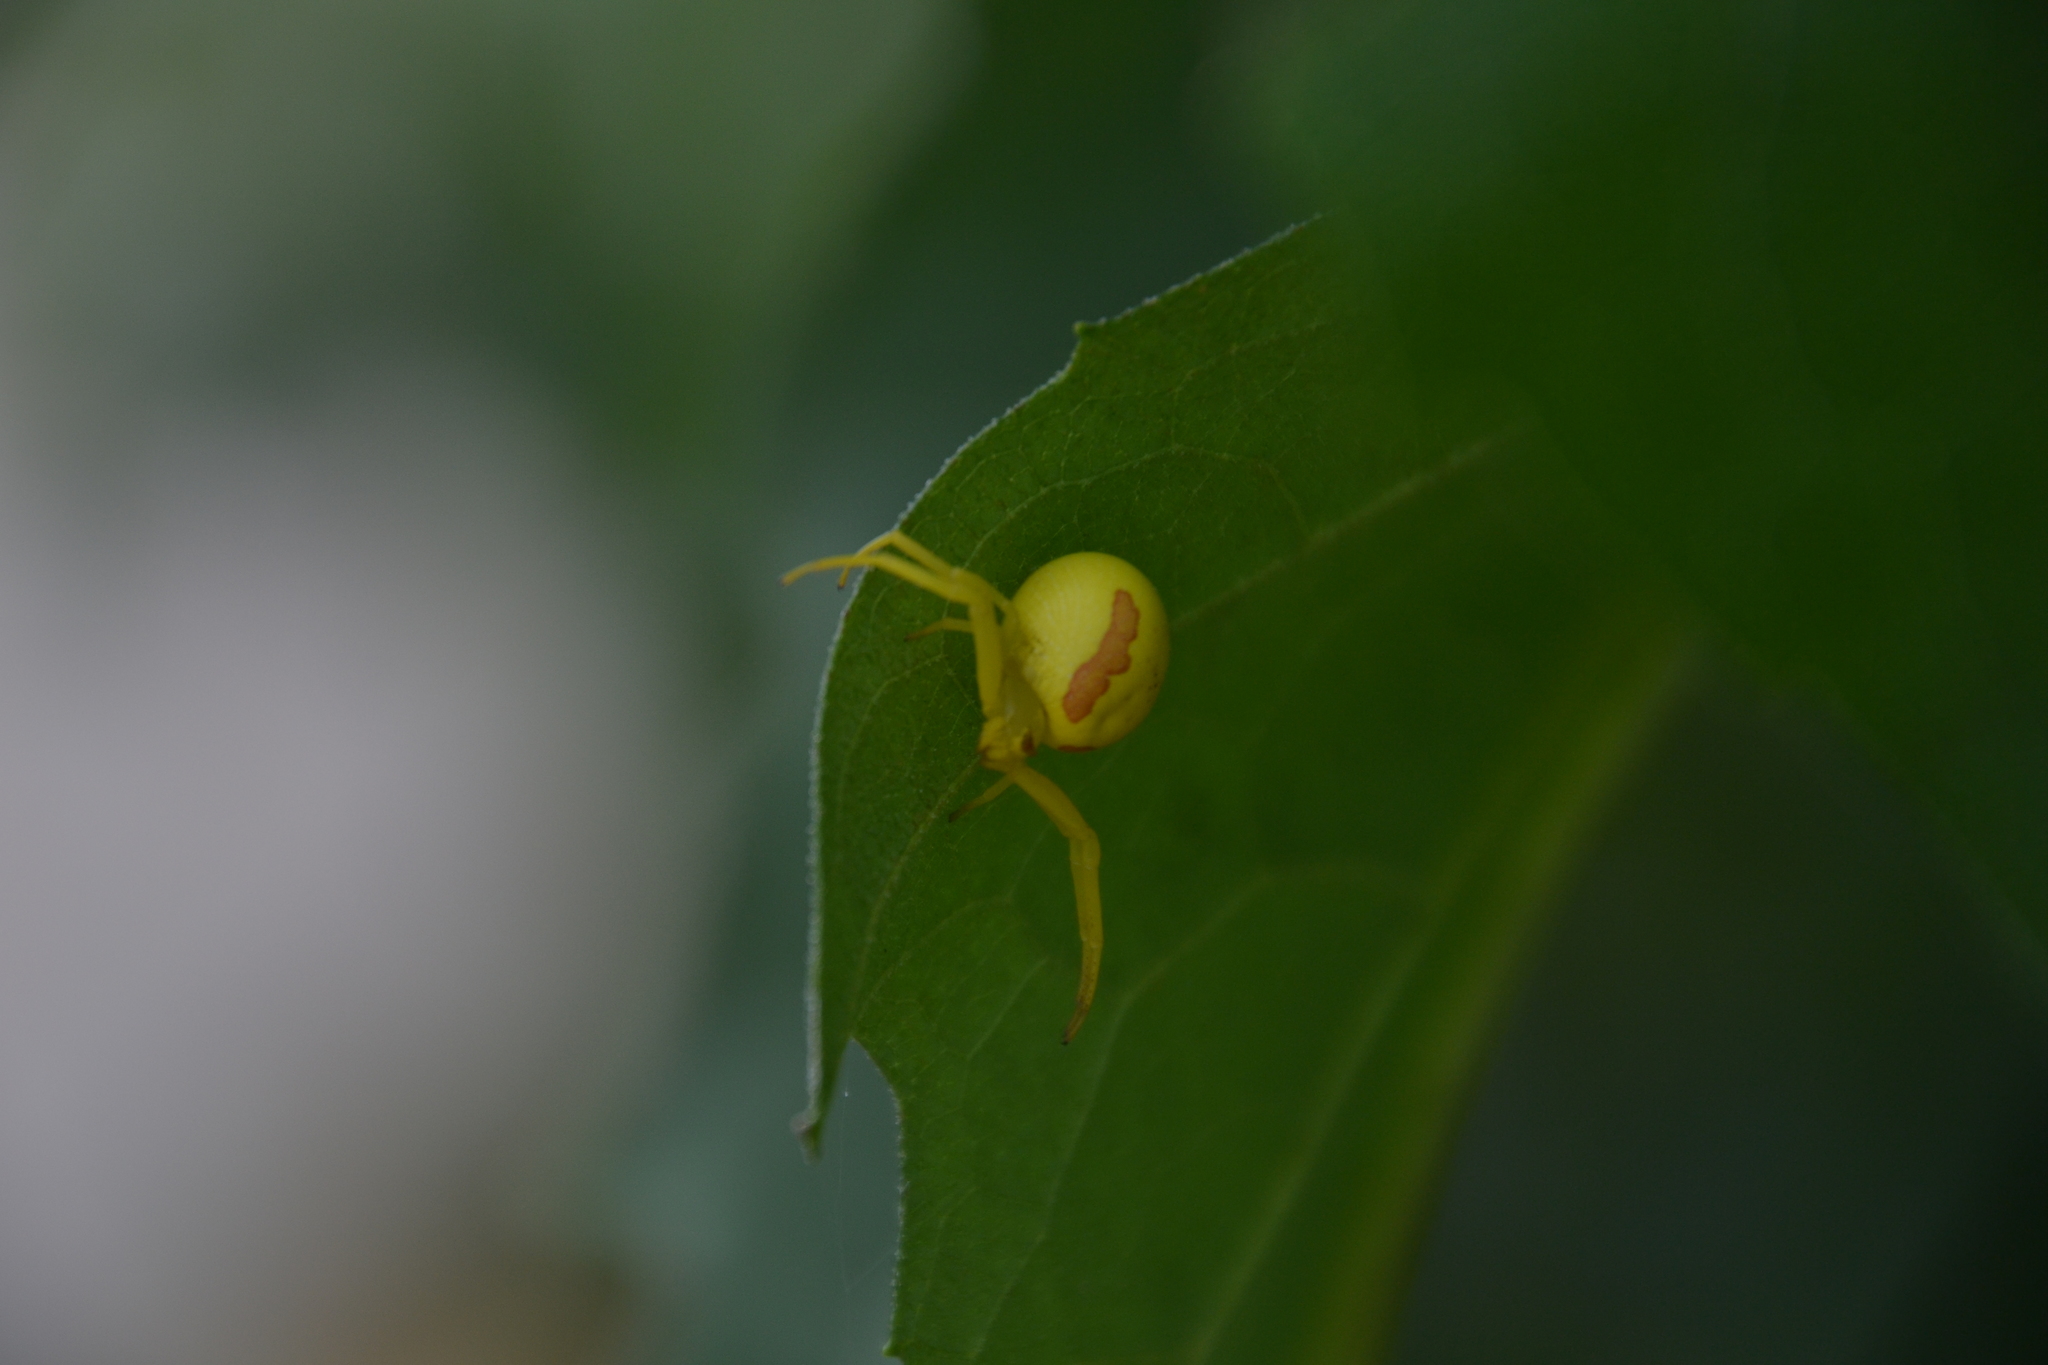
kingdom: Animalia
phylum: Arthropoda
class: Arachnida
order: Araneae
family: Thomisidae
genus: Misumena
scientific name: Misumena vatia
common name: Goldenrod crab spider
